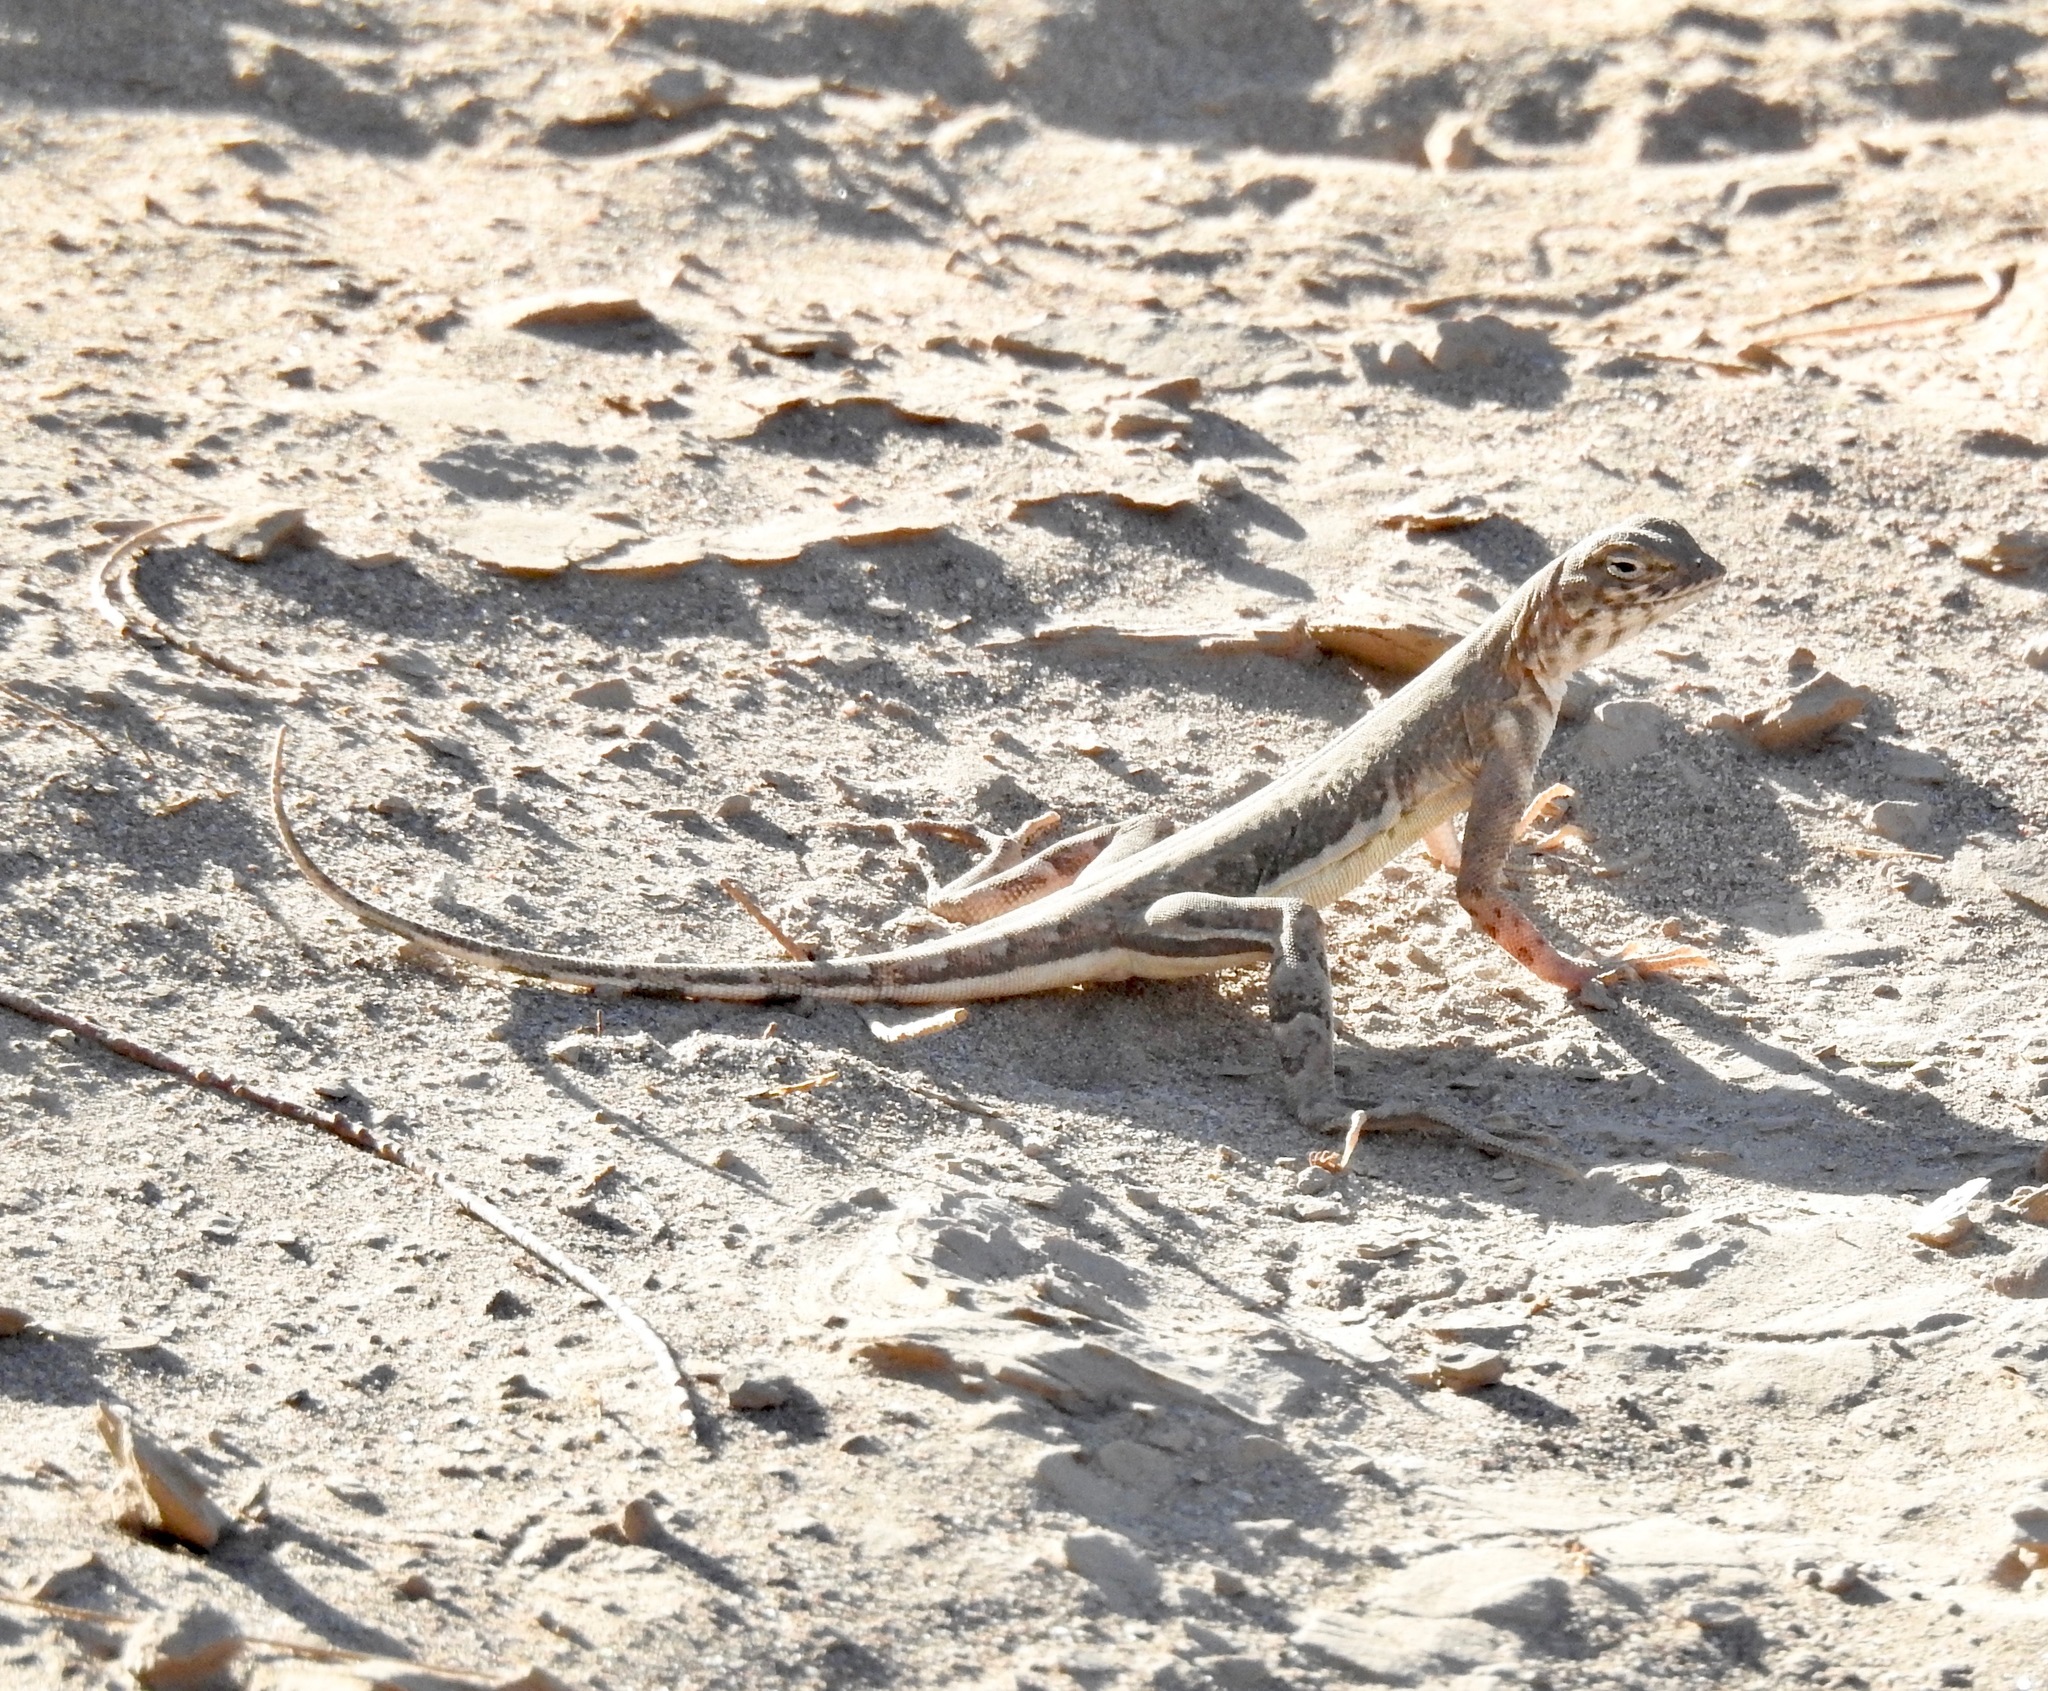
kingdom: Animalia
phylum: Chordata
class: Squamata
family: Phrynosomatidae
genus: Callisaurus
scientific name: Callisaurus draconoides
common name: Zebra-tailed lizard
